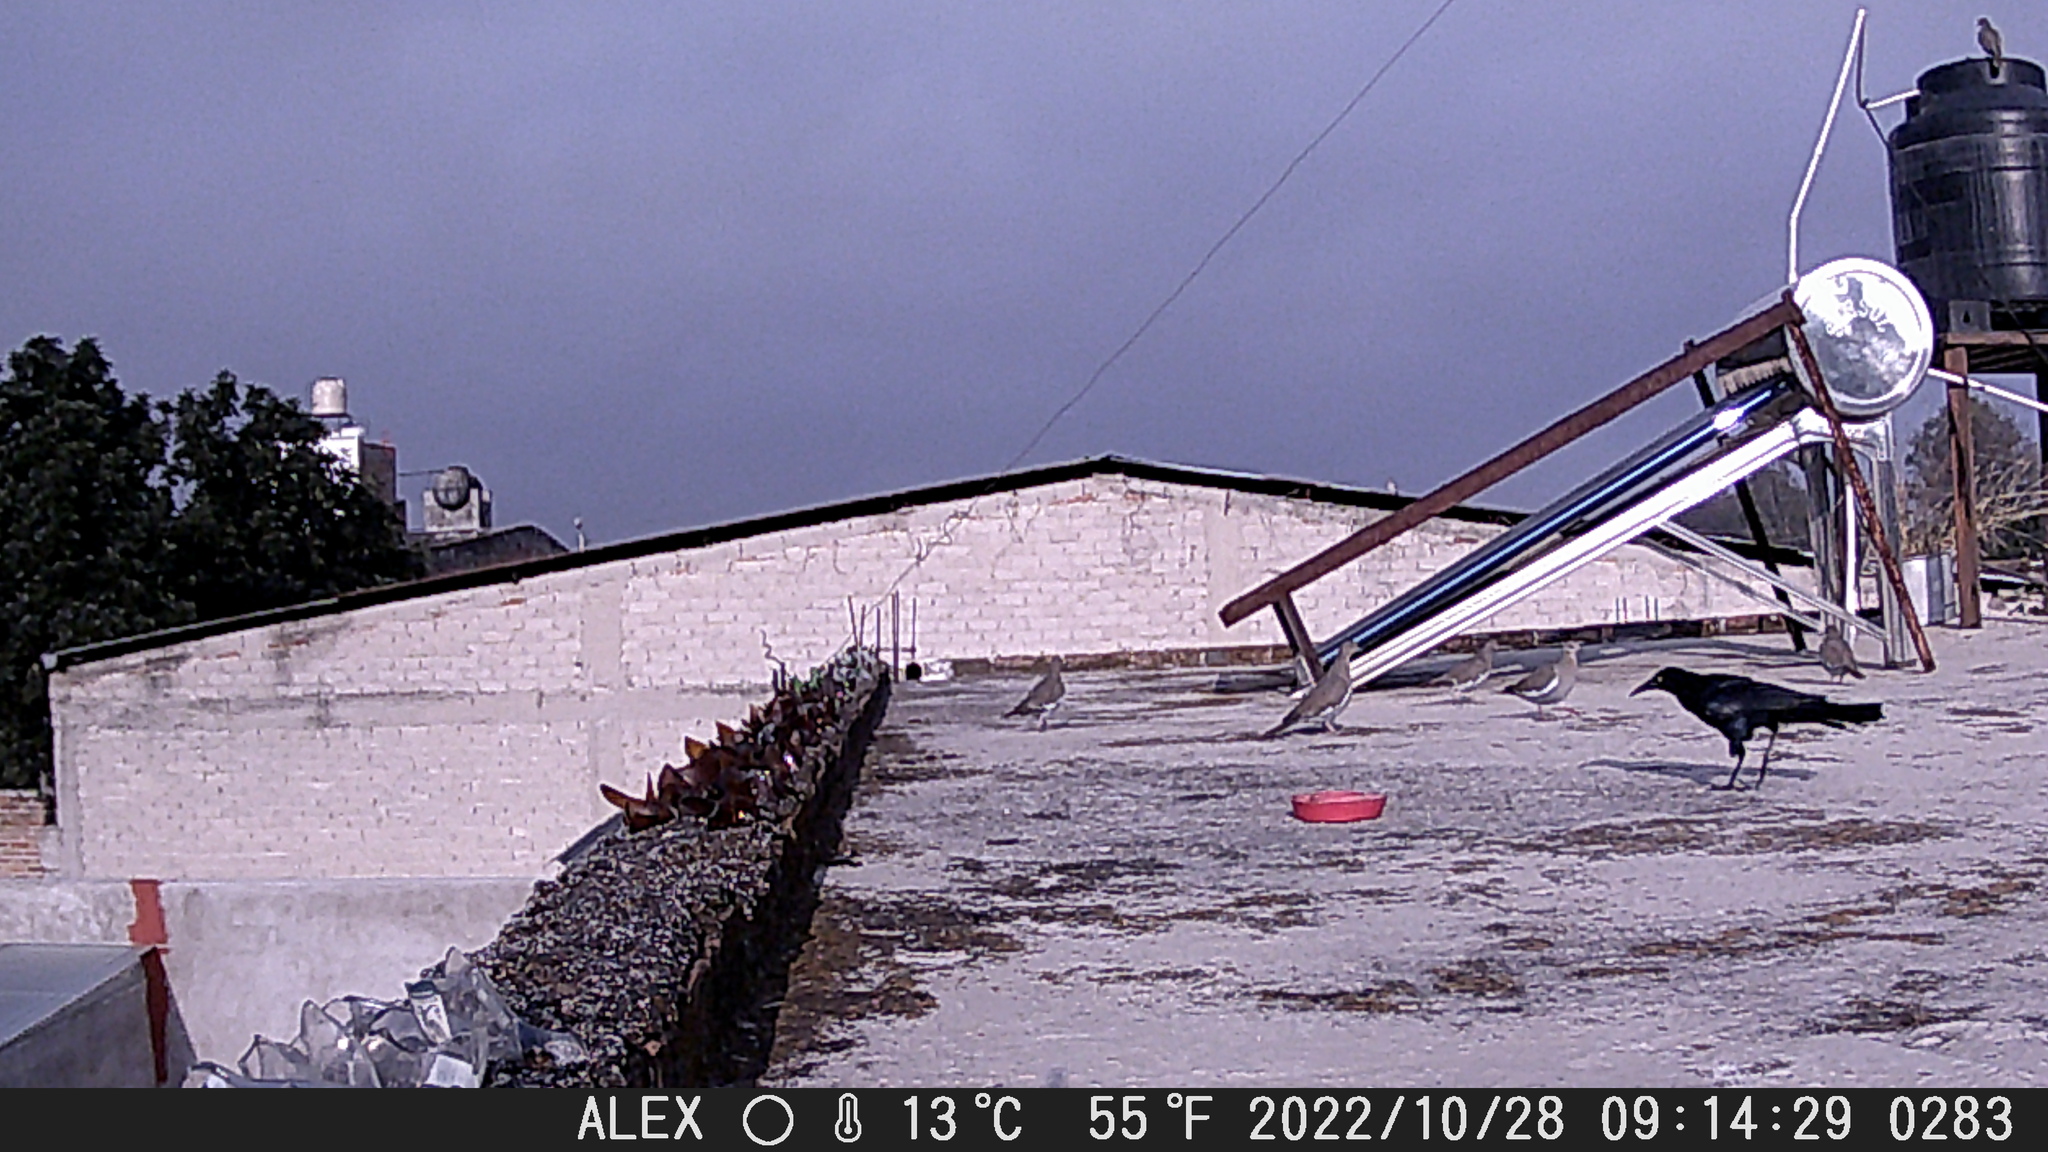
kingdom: Animalia
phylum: Chordata
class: Aves
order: Passeriformes
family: Icteridae
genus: Quiscalus
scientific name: Quiscalus mexicanus
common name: Great-tailed grackle
